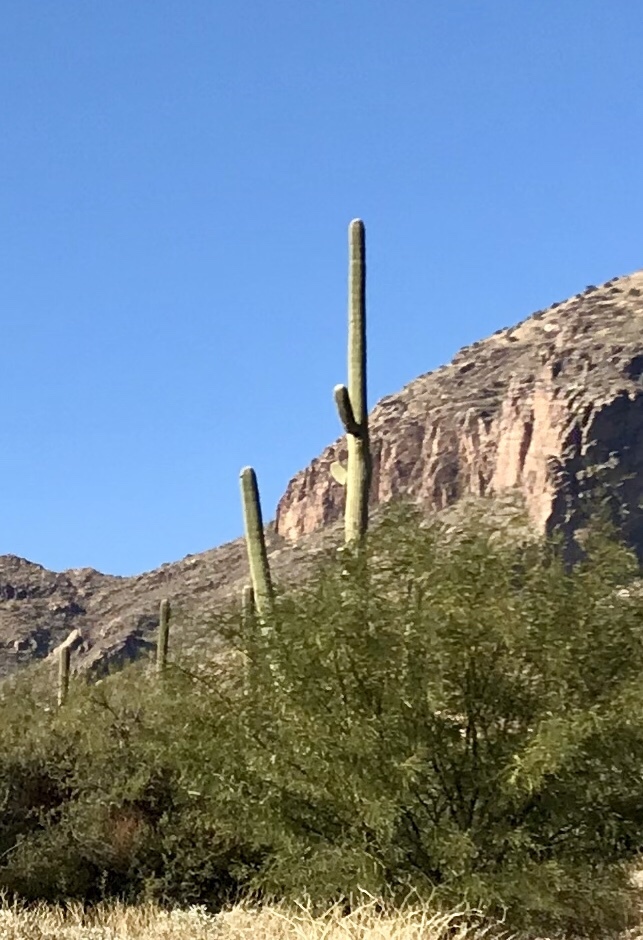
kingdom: Plantae
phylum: Tracheophyta
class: Magnoliopsida
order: Caryophyllales
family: Cactaceae
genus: Carnegiea
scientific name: Carnegiea gigantea
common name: Saguaro
